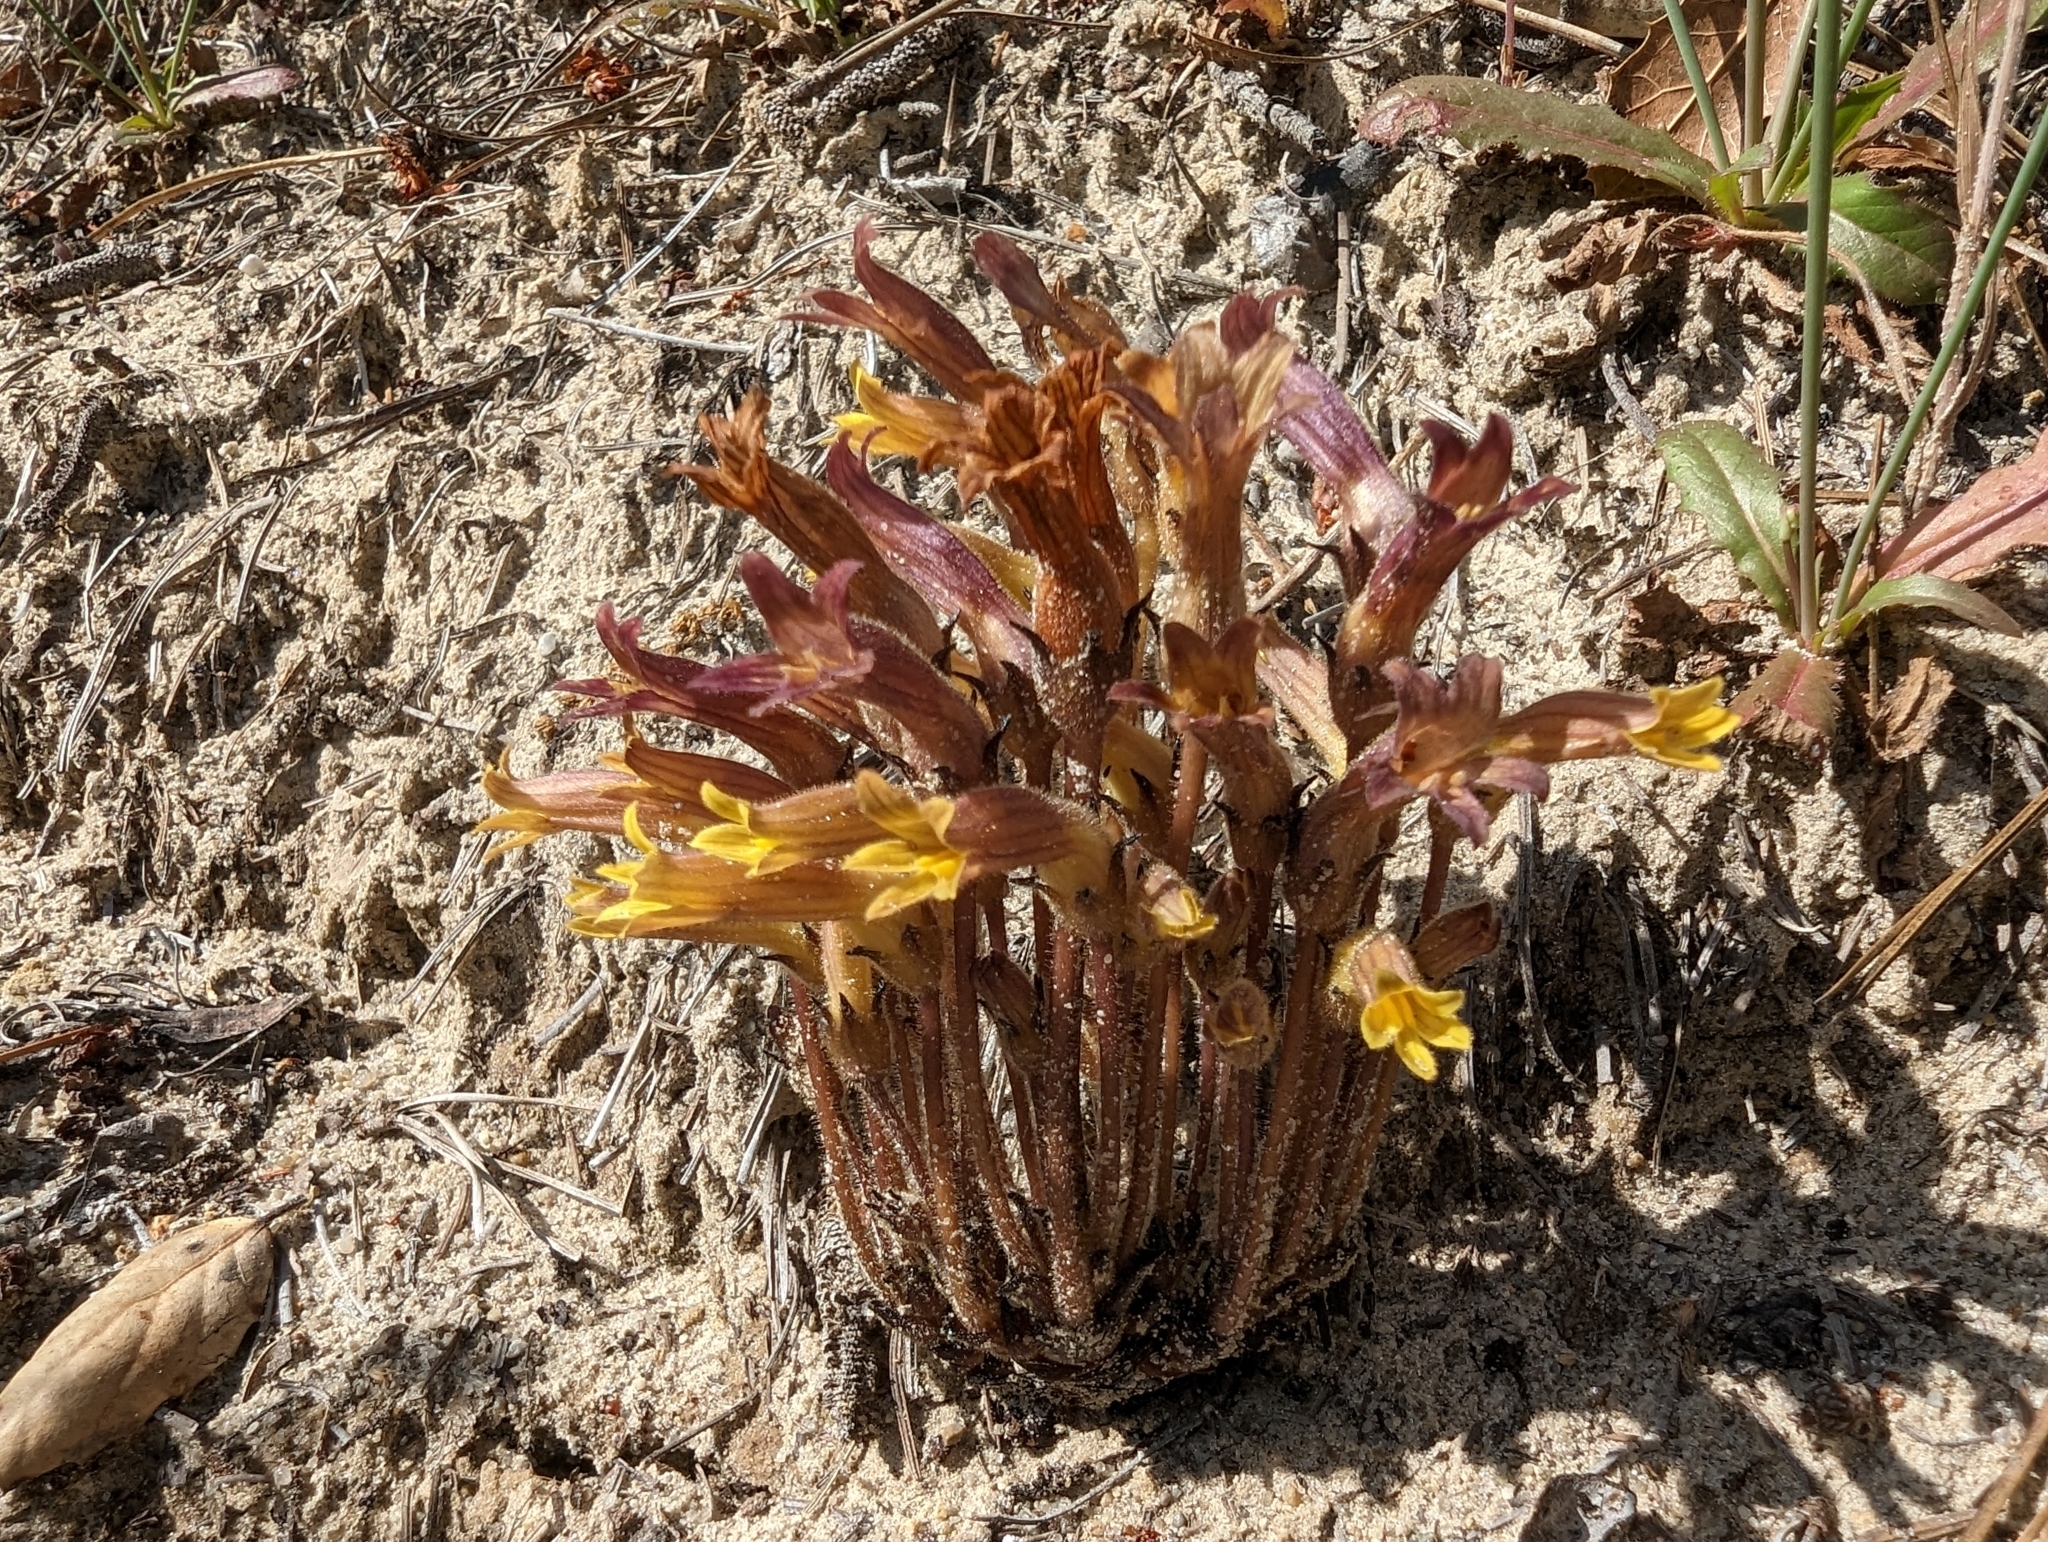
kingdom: Plantae
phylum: Tracheophyta
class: Magnoliopsida
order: Lamiales
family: Orobanchaceae
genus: Aphyllon
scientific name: Aphyllon franciscanum
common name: San francisco broomrape
